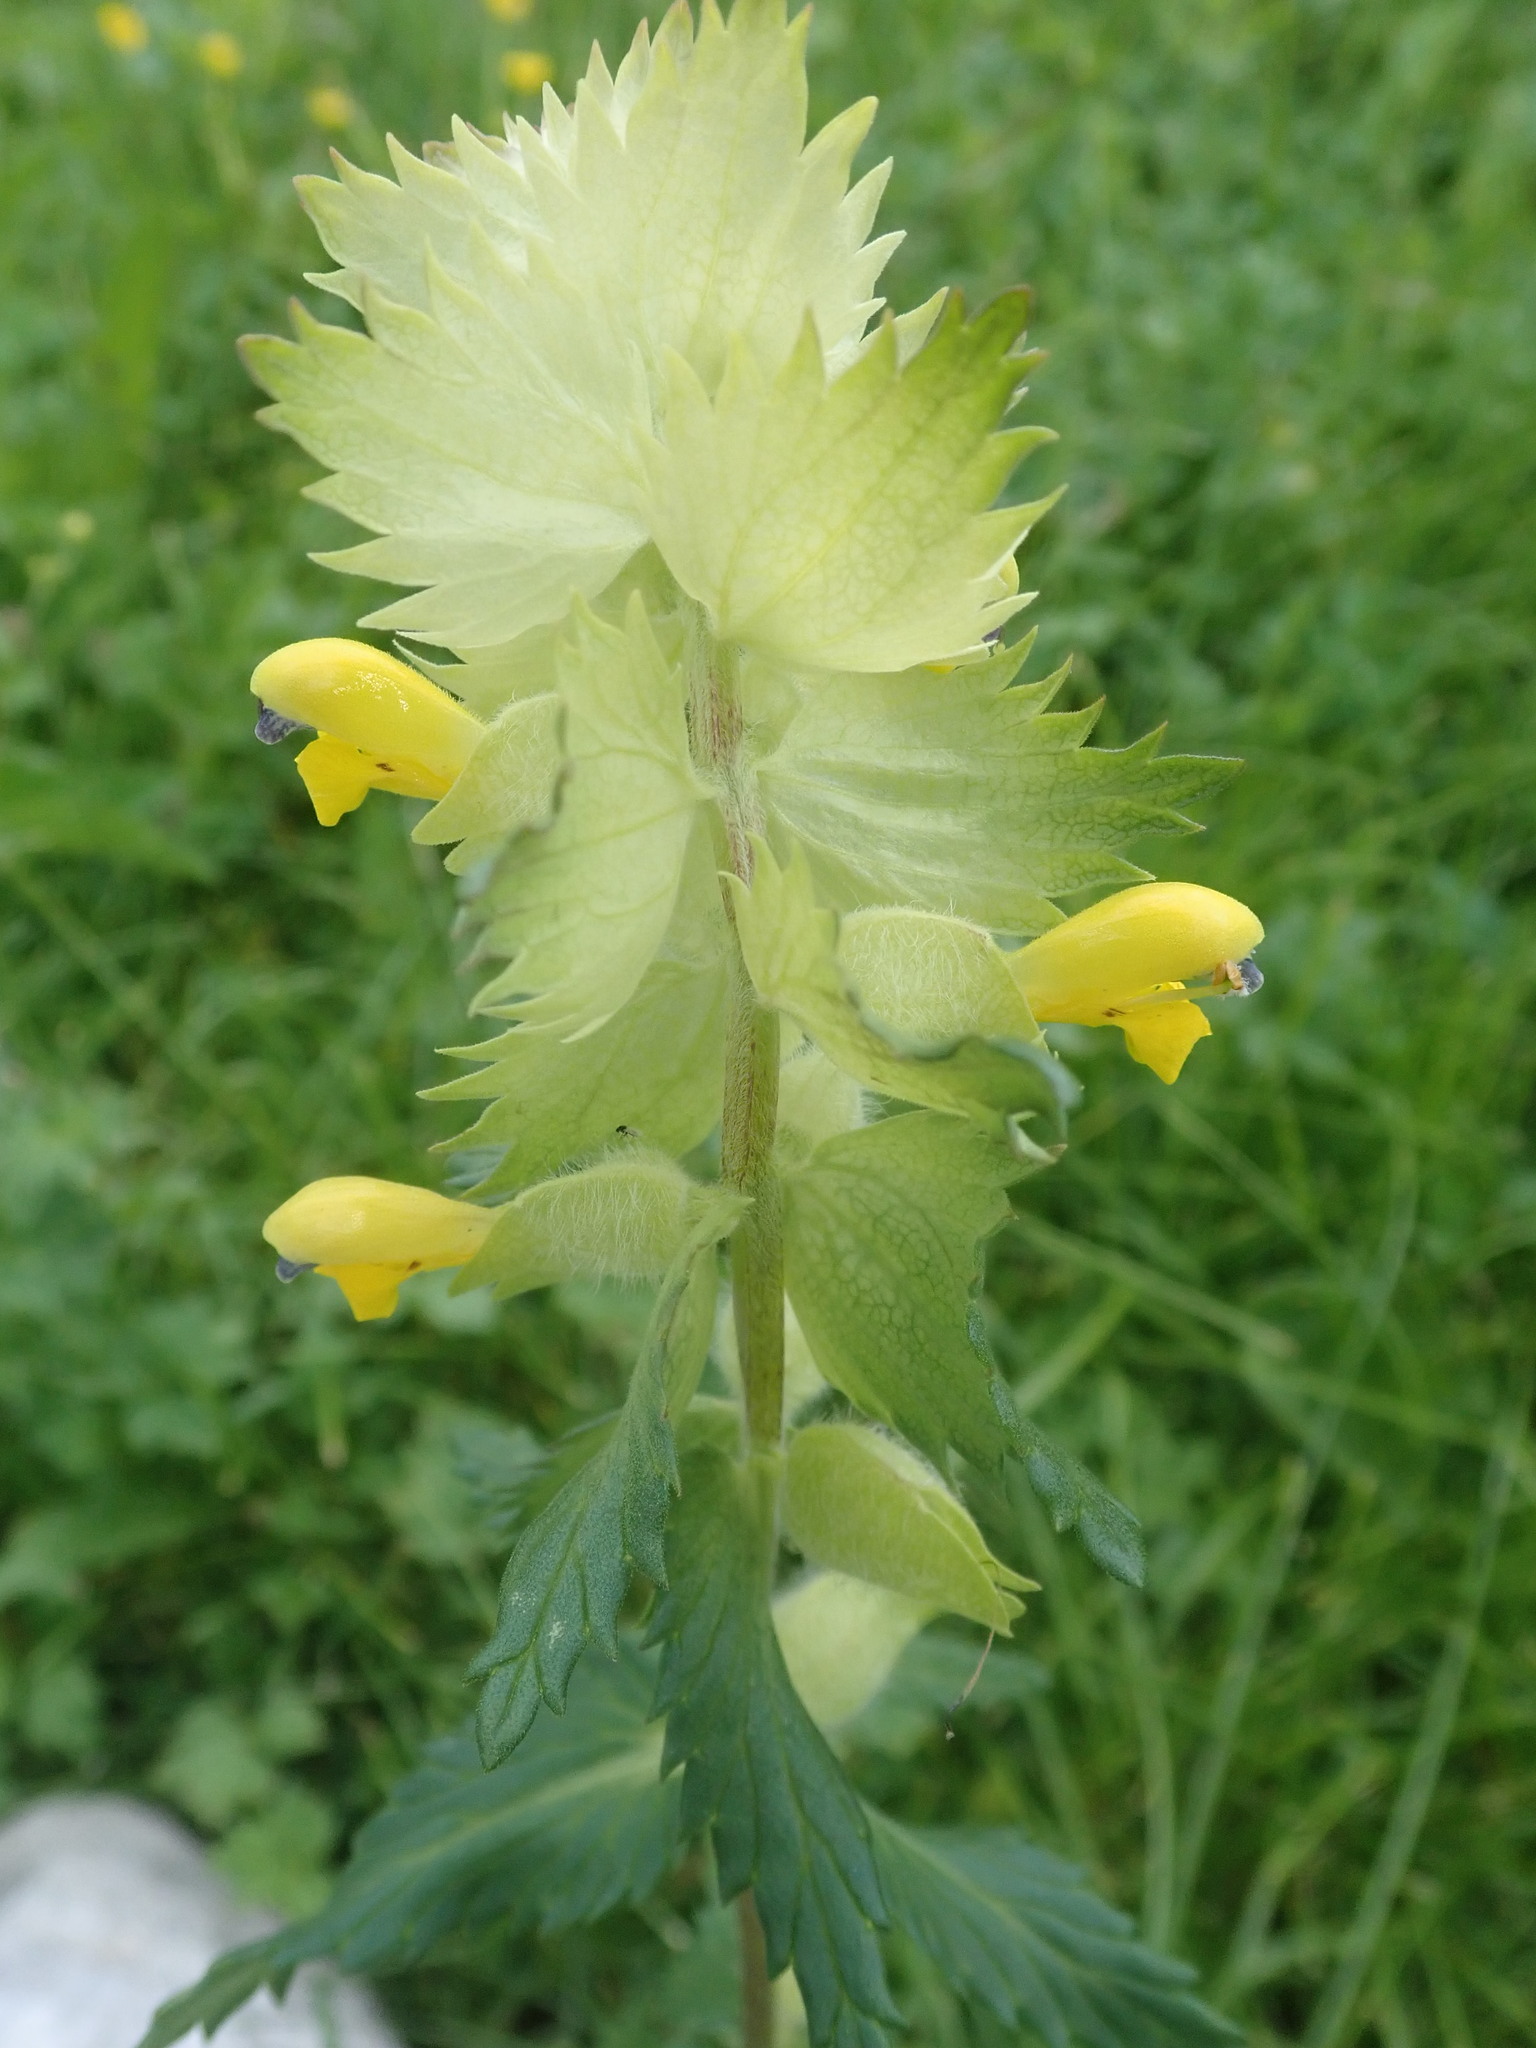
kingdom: Plantae
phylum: Tracheophyta
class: Magnoliopsida
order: Lamiales
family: Orobanchaceae
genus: Rhinanthus
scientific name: Rhinanthus alectorolophus
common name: Greater yellow-rattle
